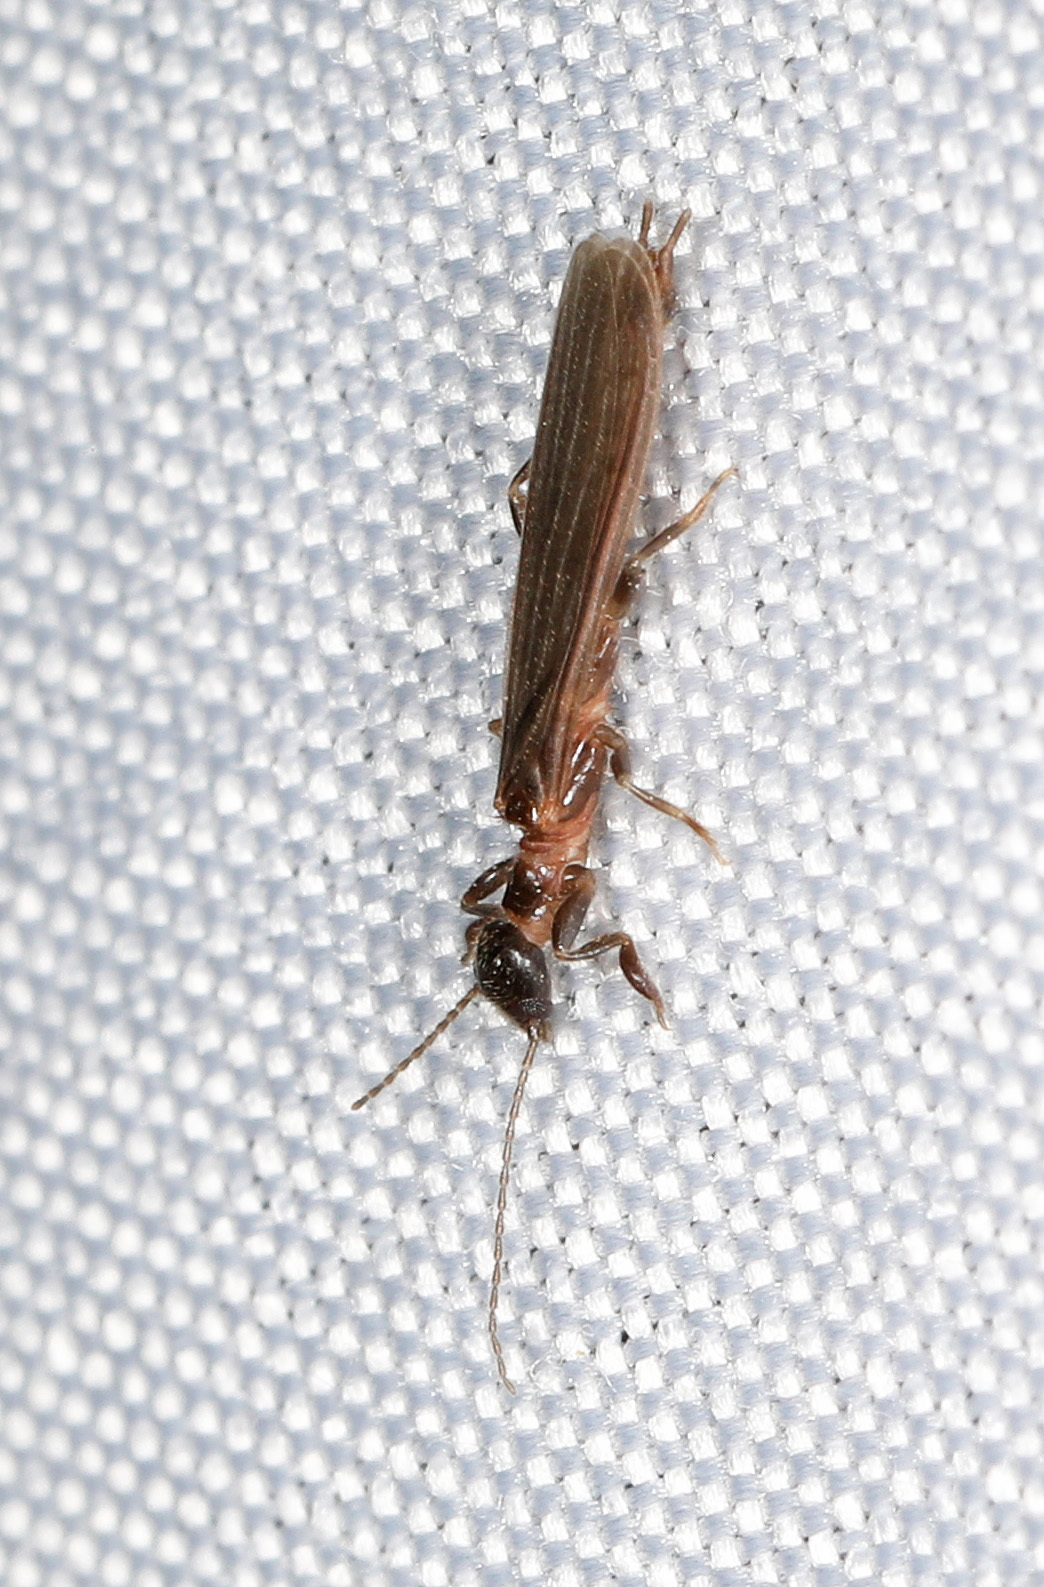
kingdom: Animalia
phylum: Arthropoda
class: Insecta
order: Embioptera
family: Oligotomidae
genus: Oligotoma
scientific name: Oligotoma nigra
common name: Black webspinner
